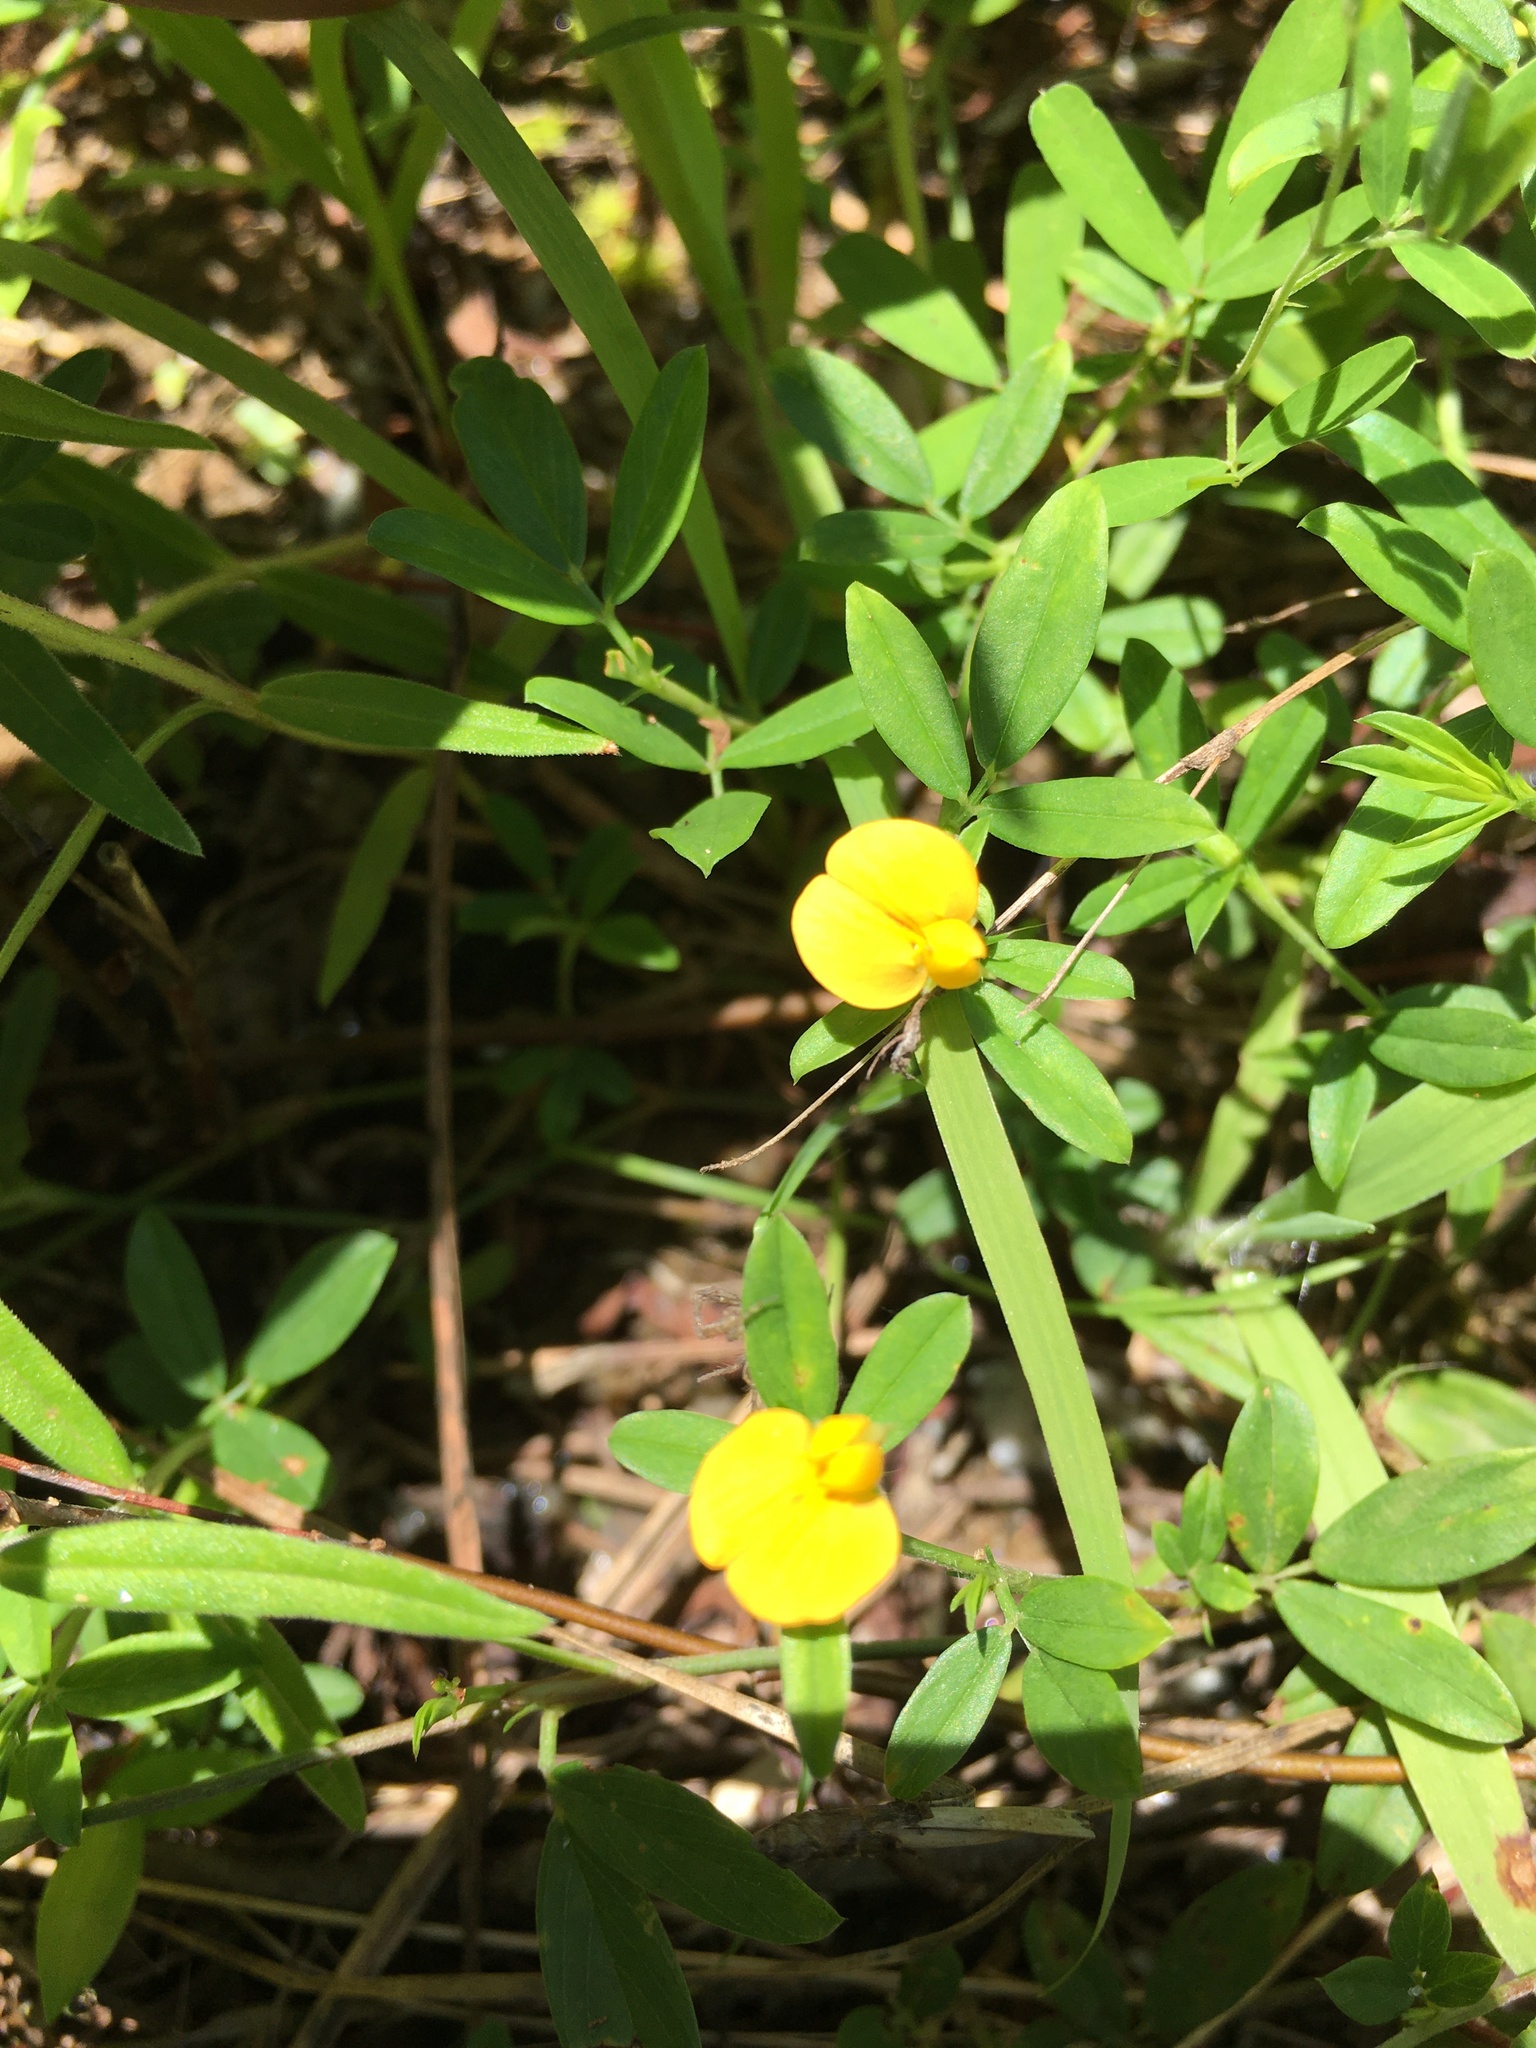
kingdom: Plantae
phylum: Tracheophyta
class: Magnoliopsida
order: Fabales
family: Fabaceae
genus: Stylosanthes
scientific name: Stylosanthes biflora
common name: Two-flower pencil-flower
